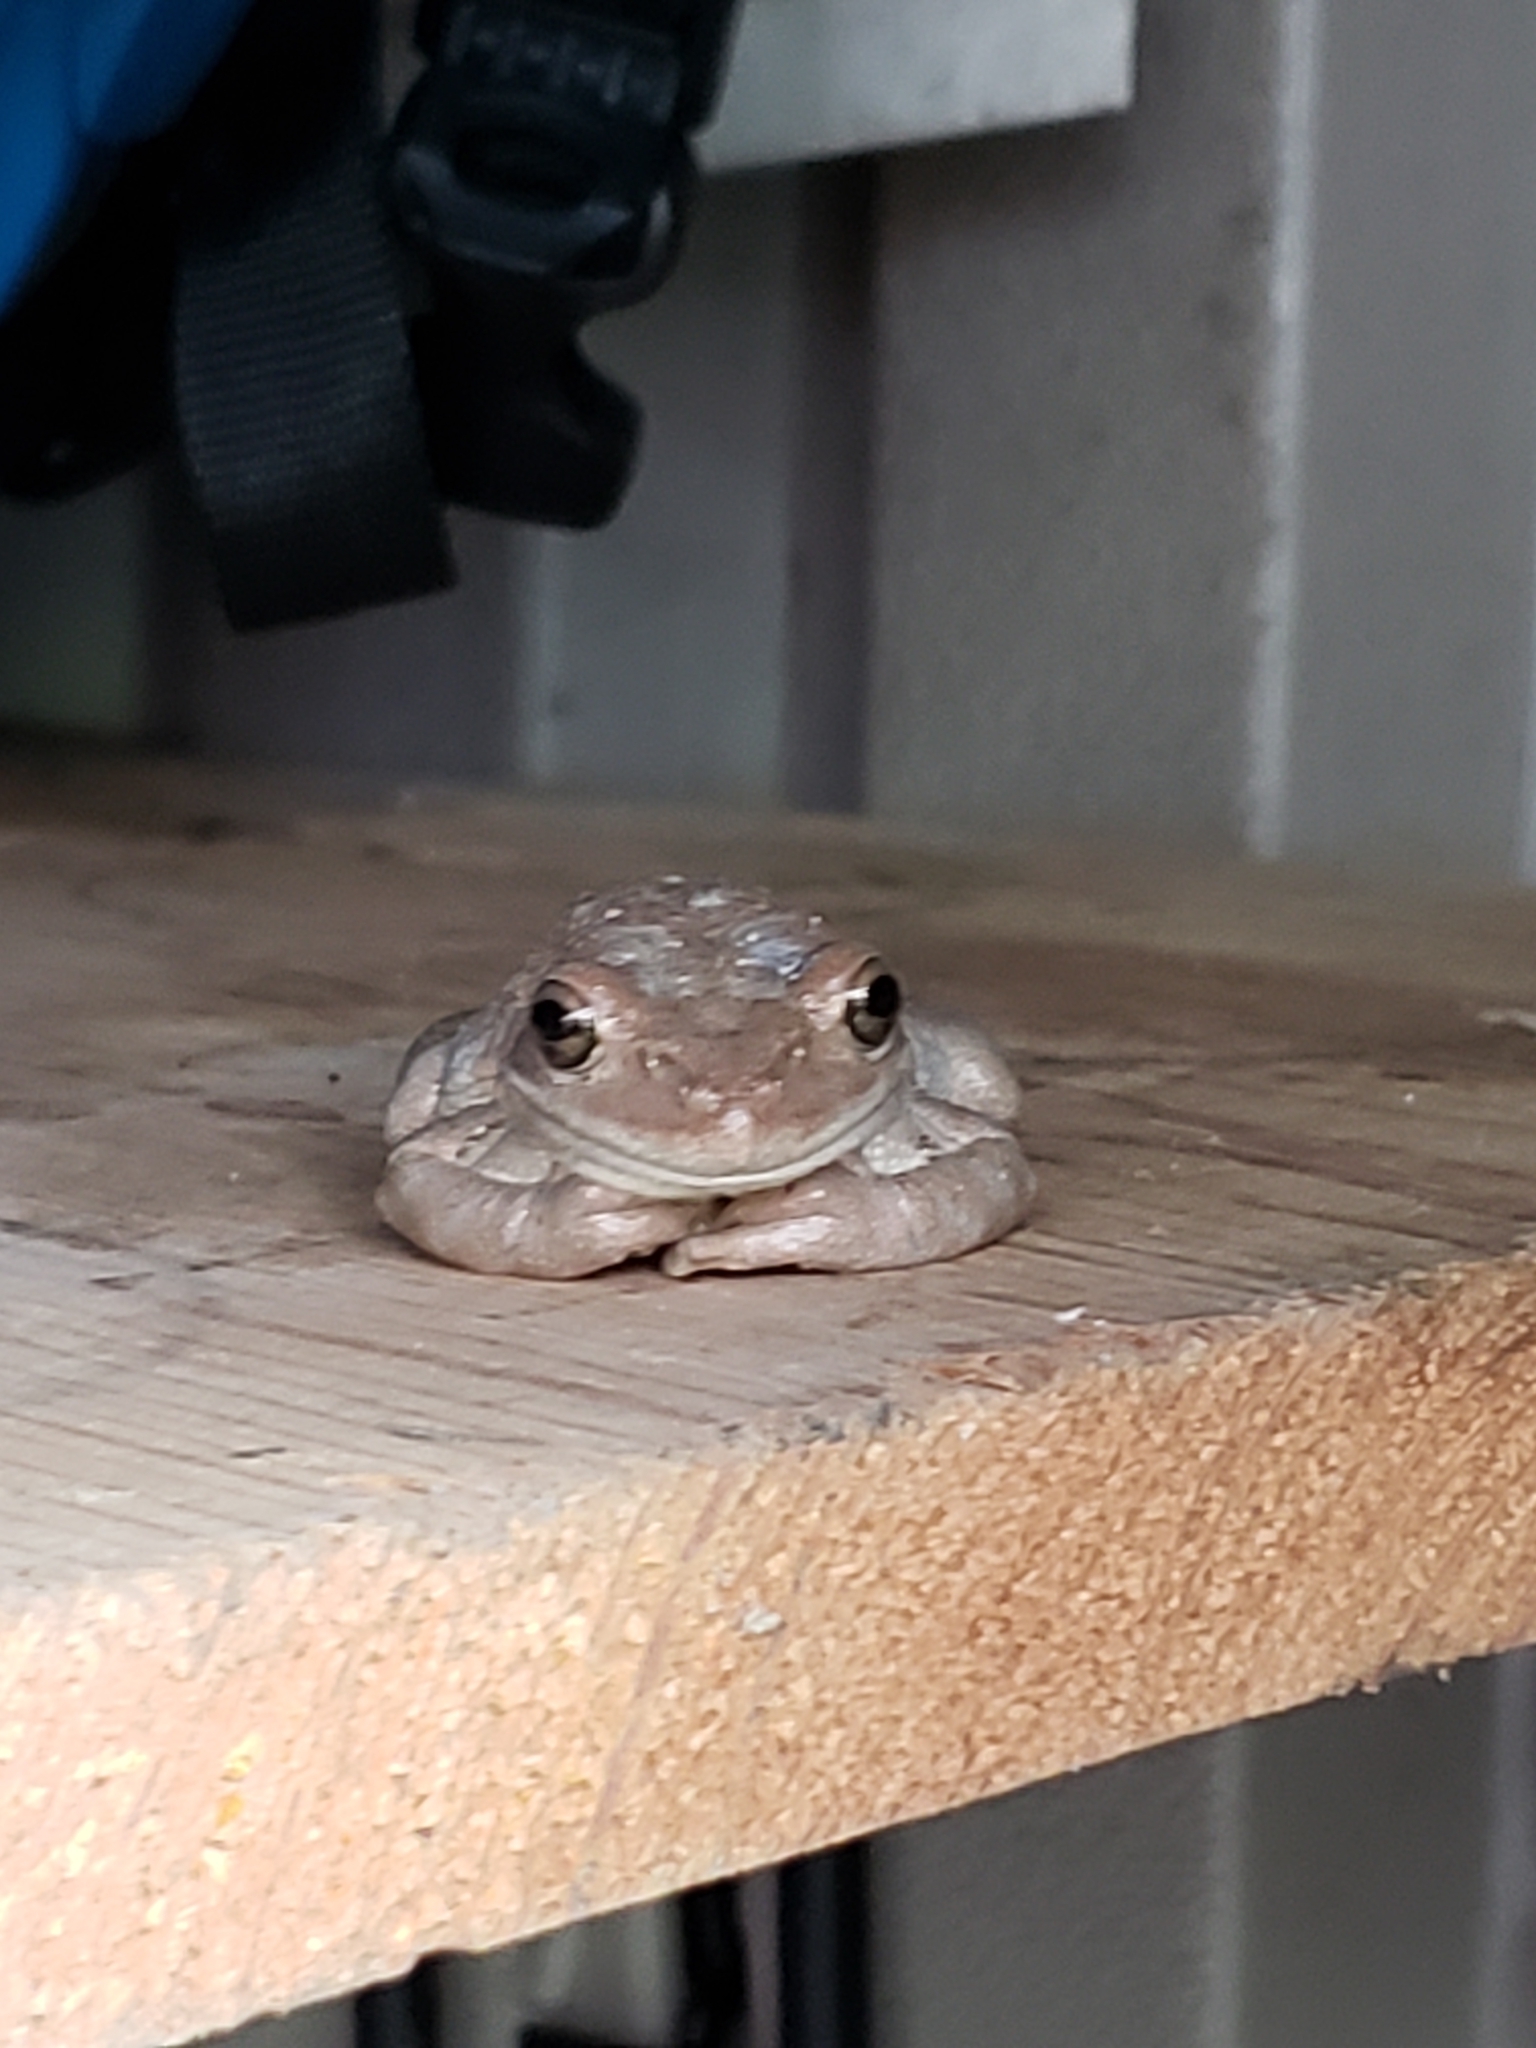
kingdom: Animalia
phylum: Chordata
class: Amphibia
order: Anura
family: Hylidae
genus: Osteopilus
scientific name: Osteopilus septentrionalis
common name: Cuban treefrog
